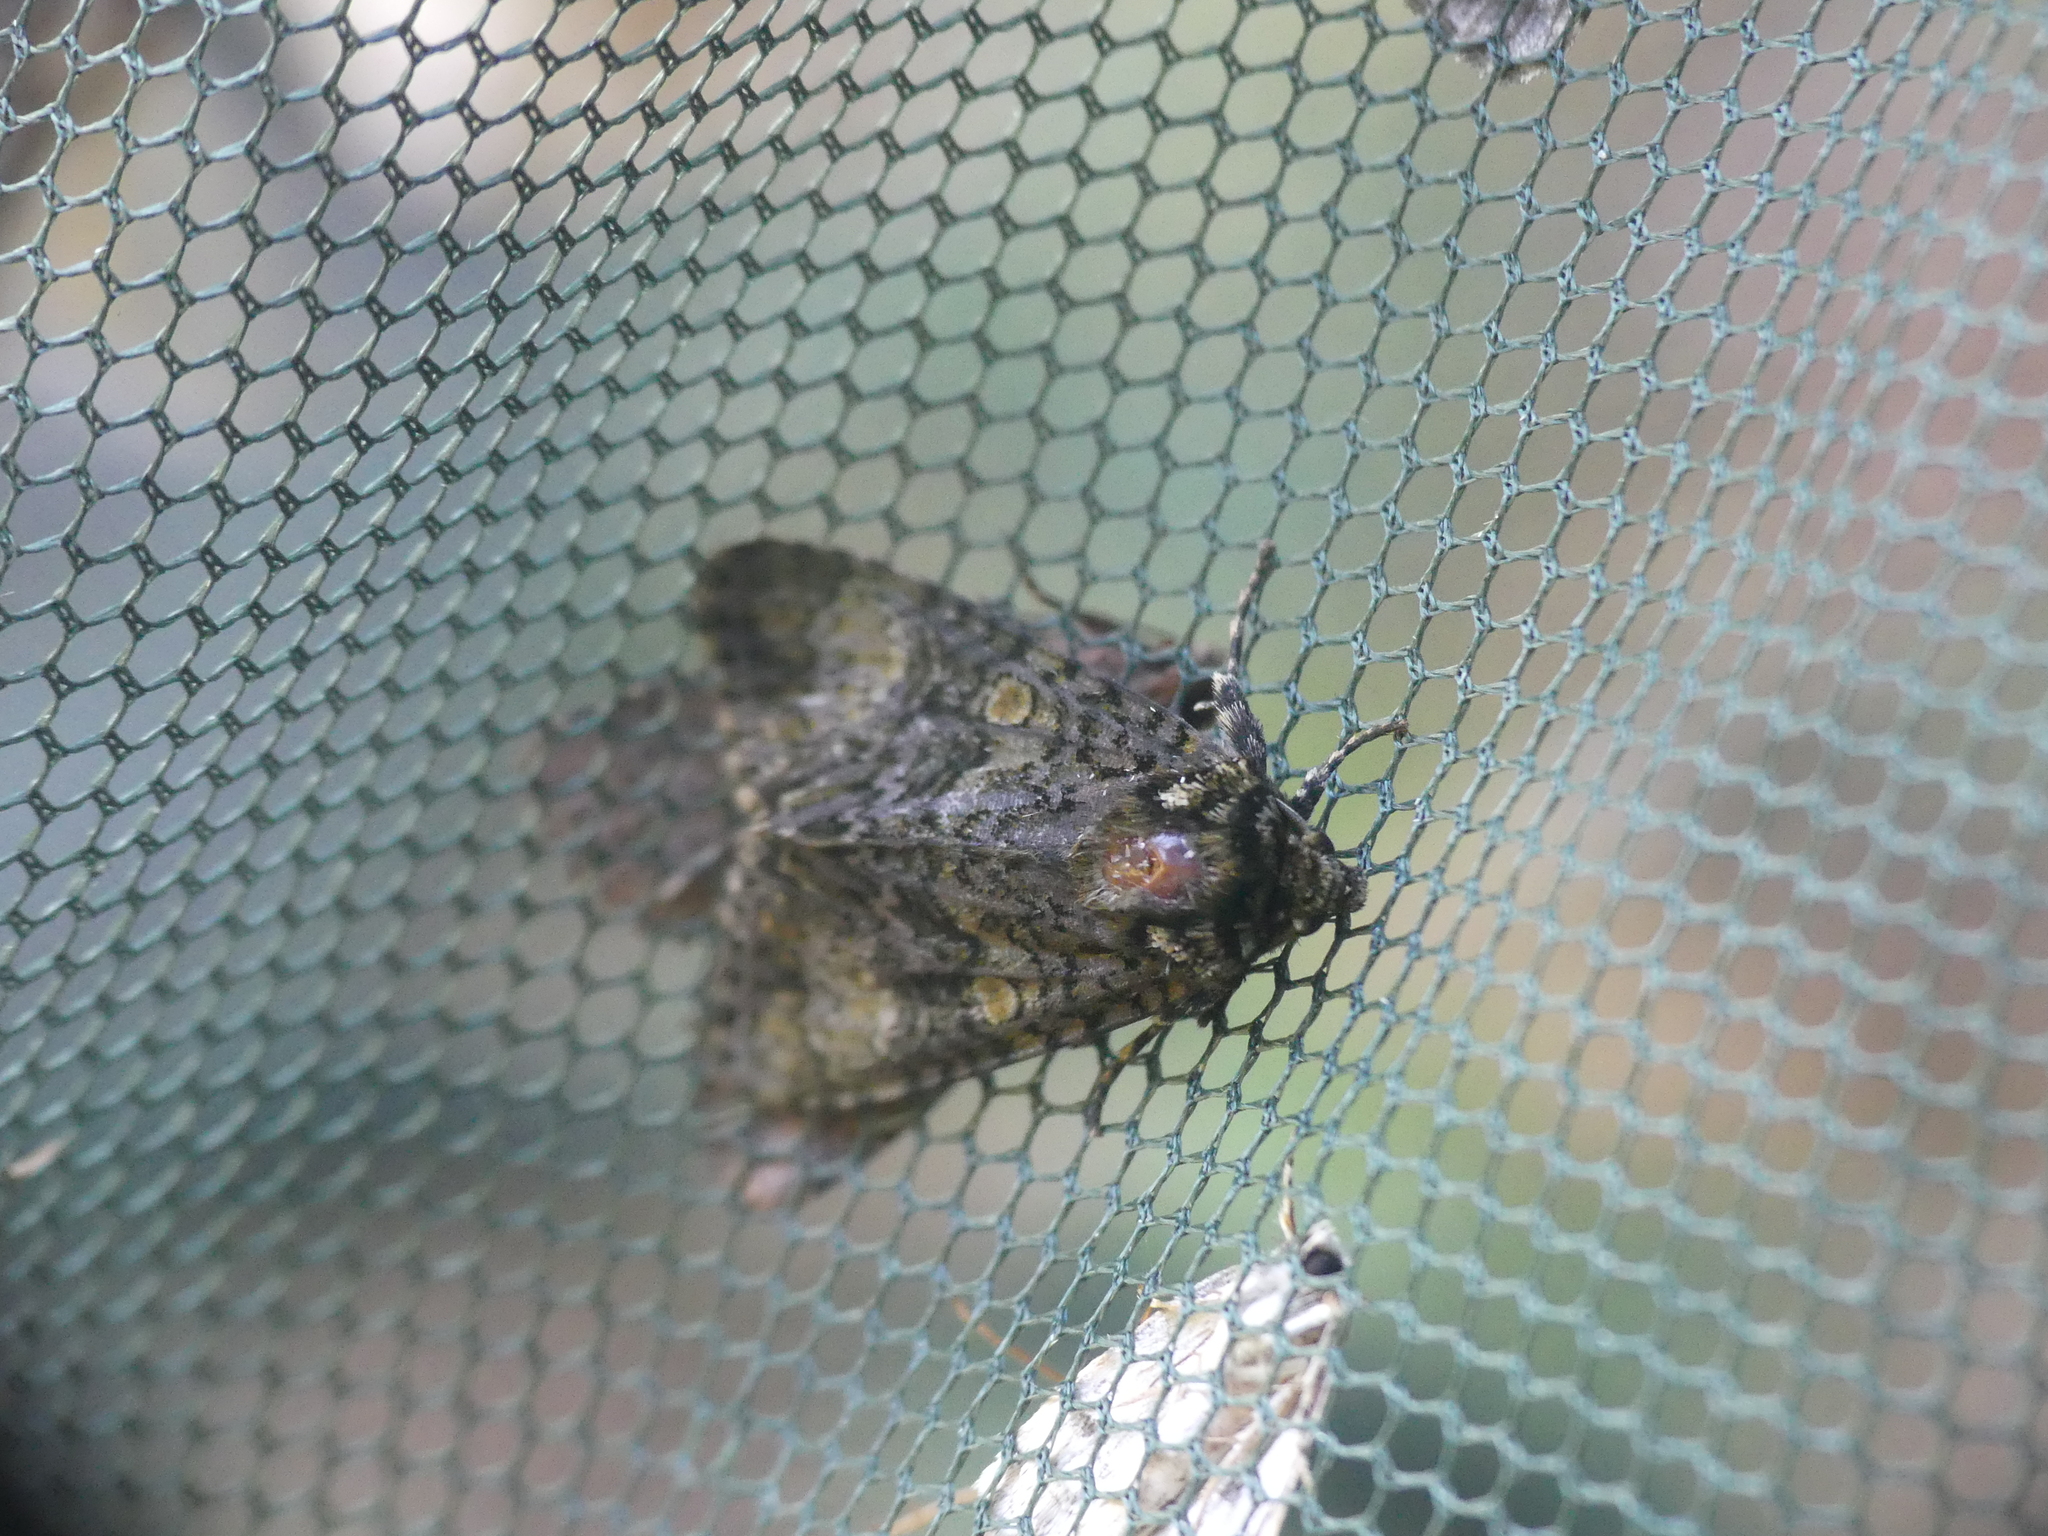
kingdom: Animalia
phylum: Arthropoda
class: Insecta
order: Lepidoptera
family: Noctuidae
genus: Craniophora
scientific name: Craniophora ligustri
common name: Coronet
